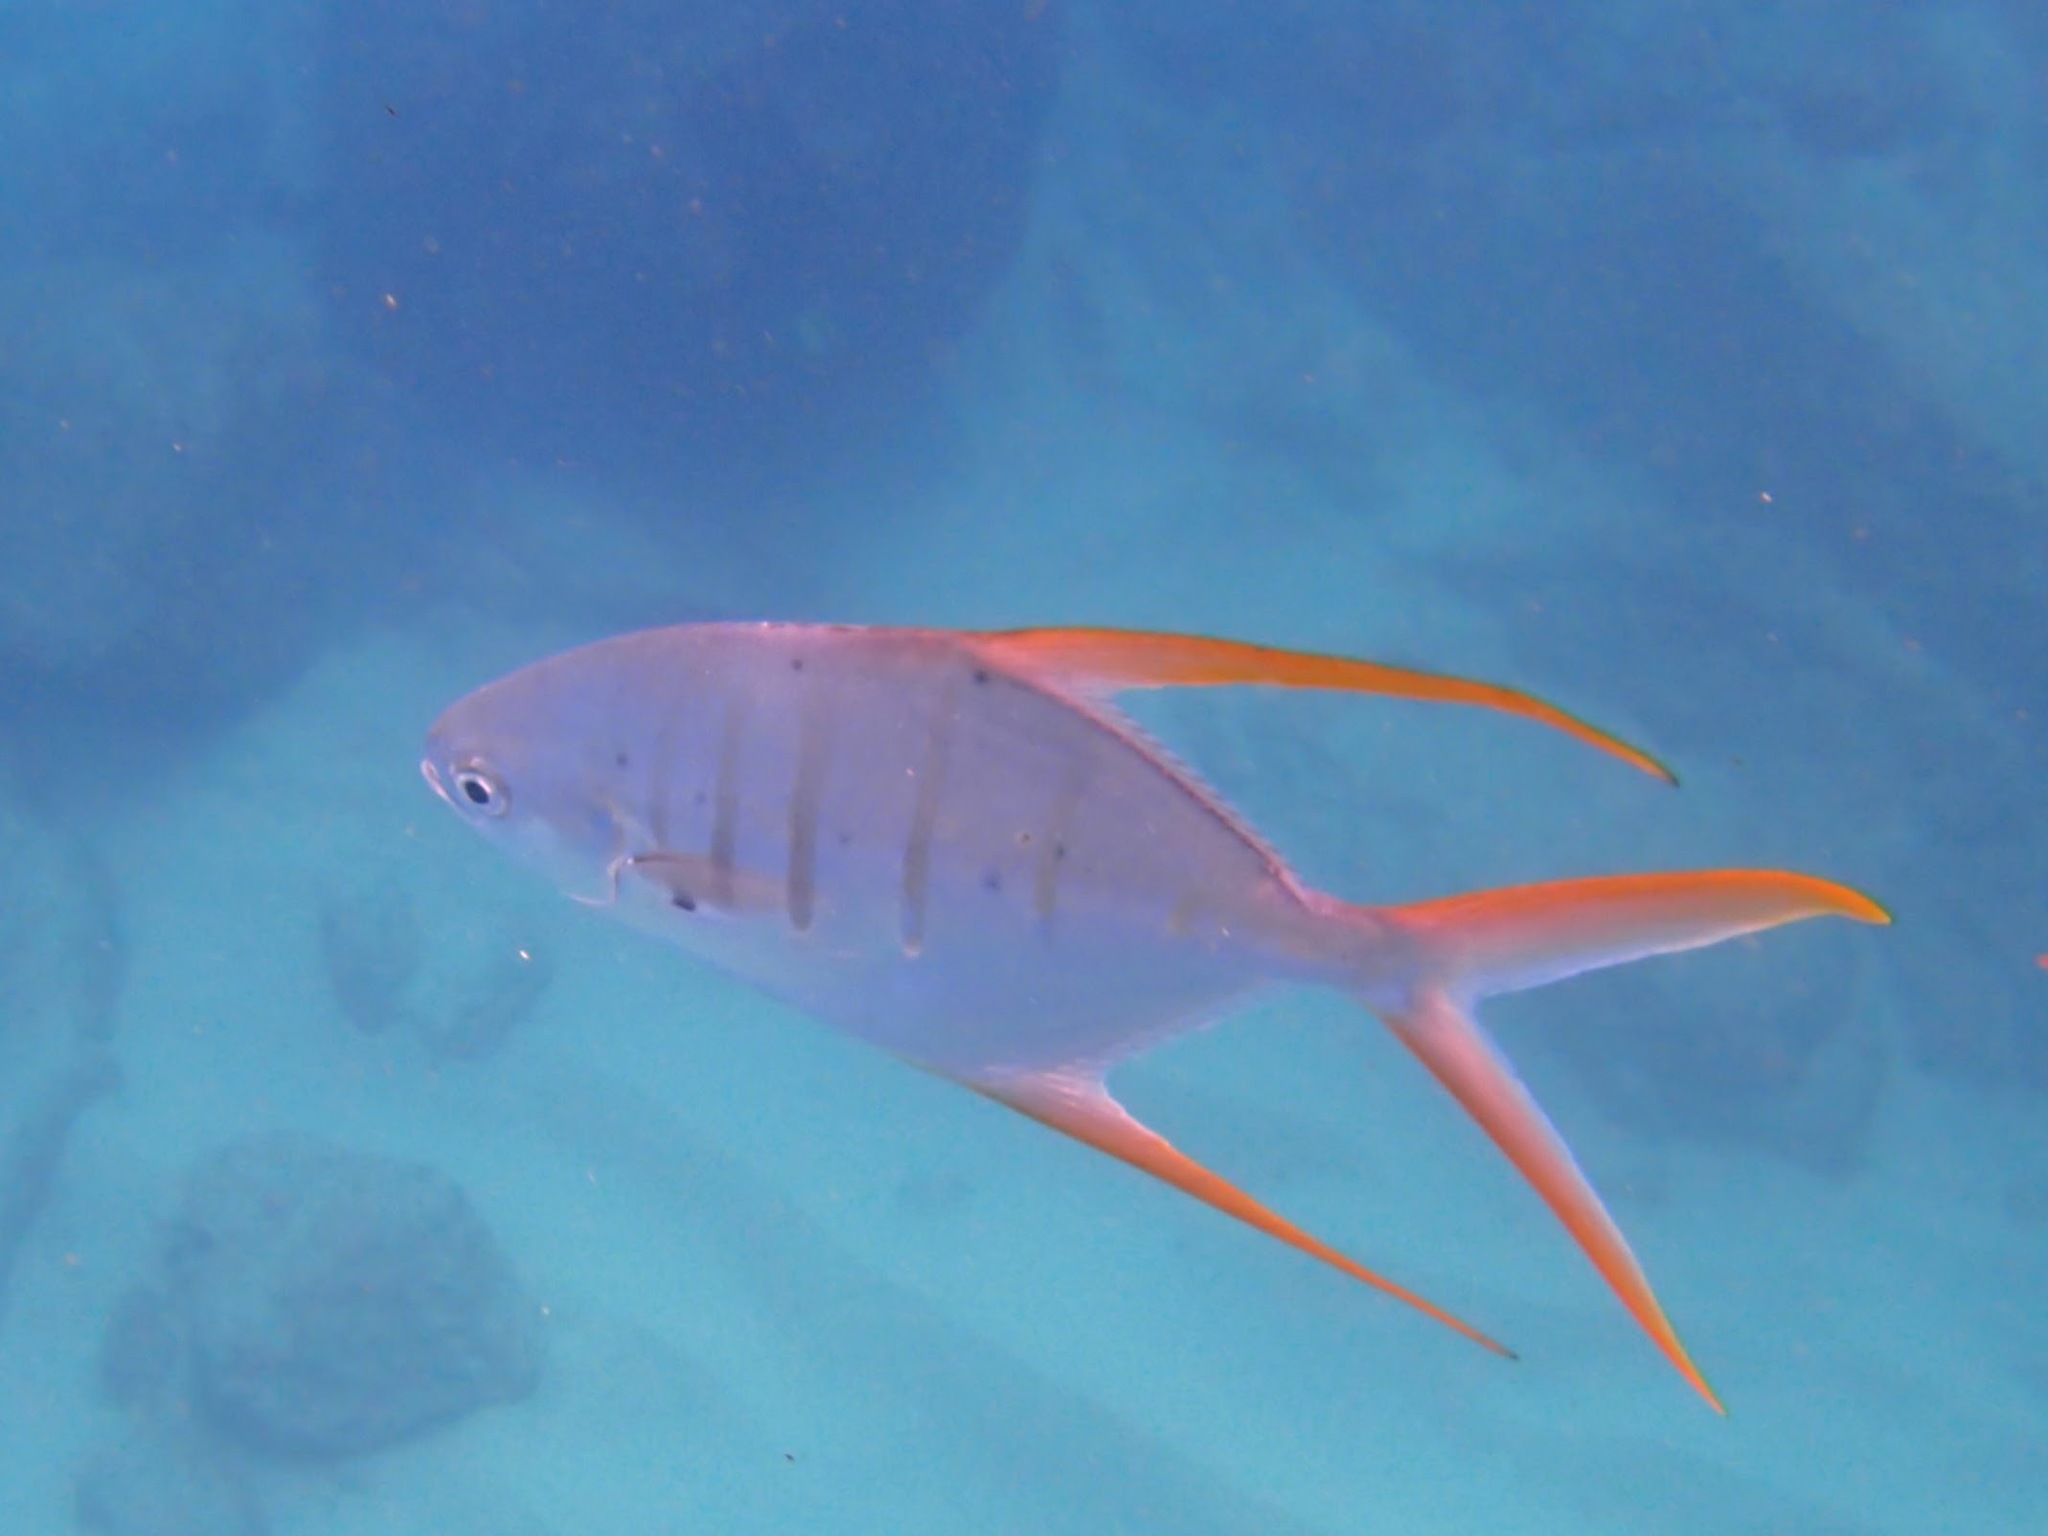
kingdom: Animalia
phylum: Chordata
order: Perciformes
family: Carangidae
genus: Trachinotus
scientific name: Trachinotus rhodopus
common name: Gafftopsail pompano
